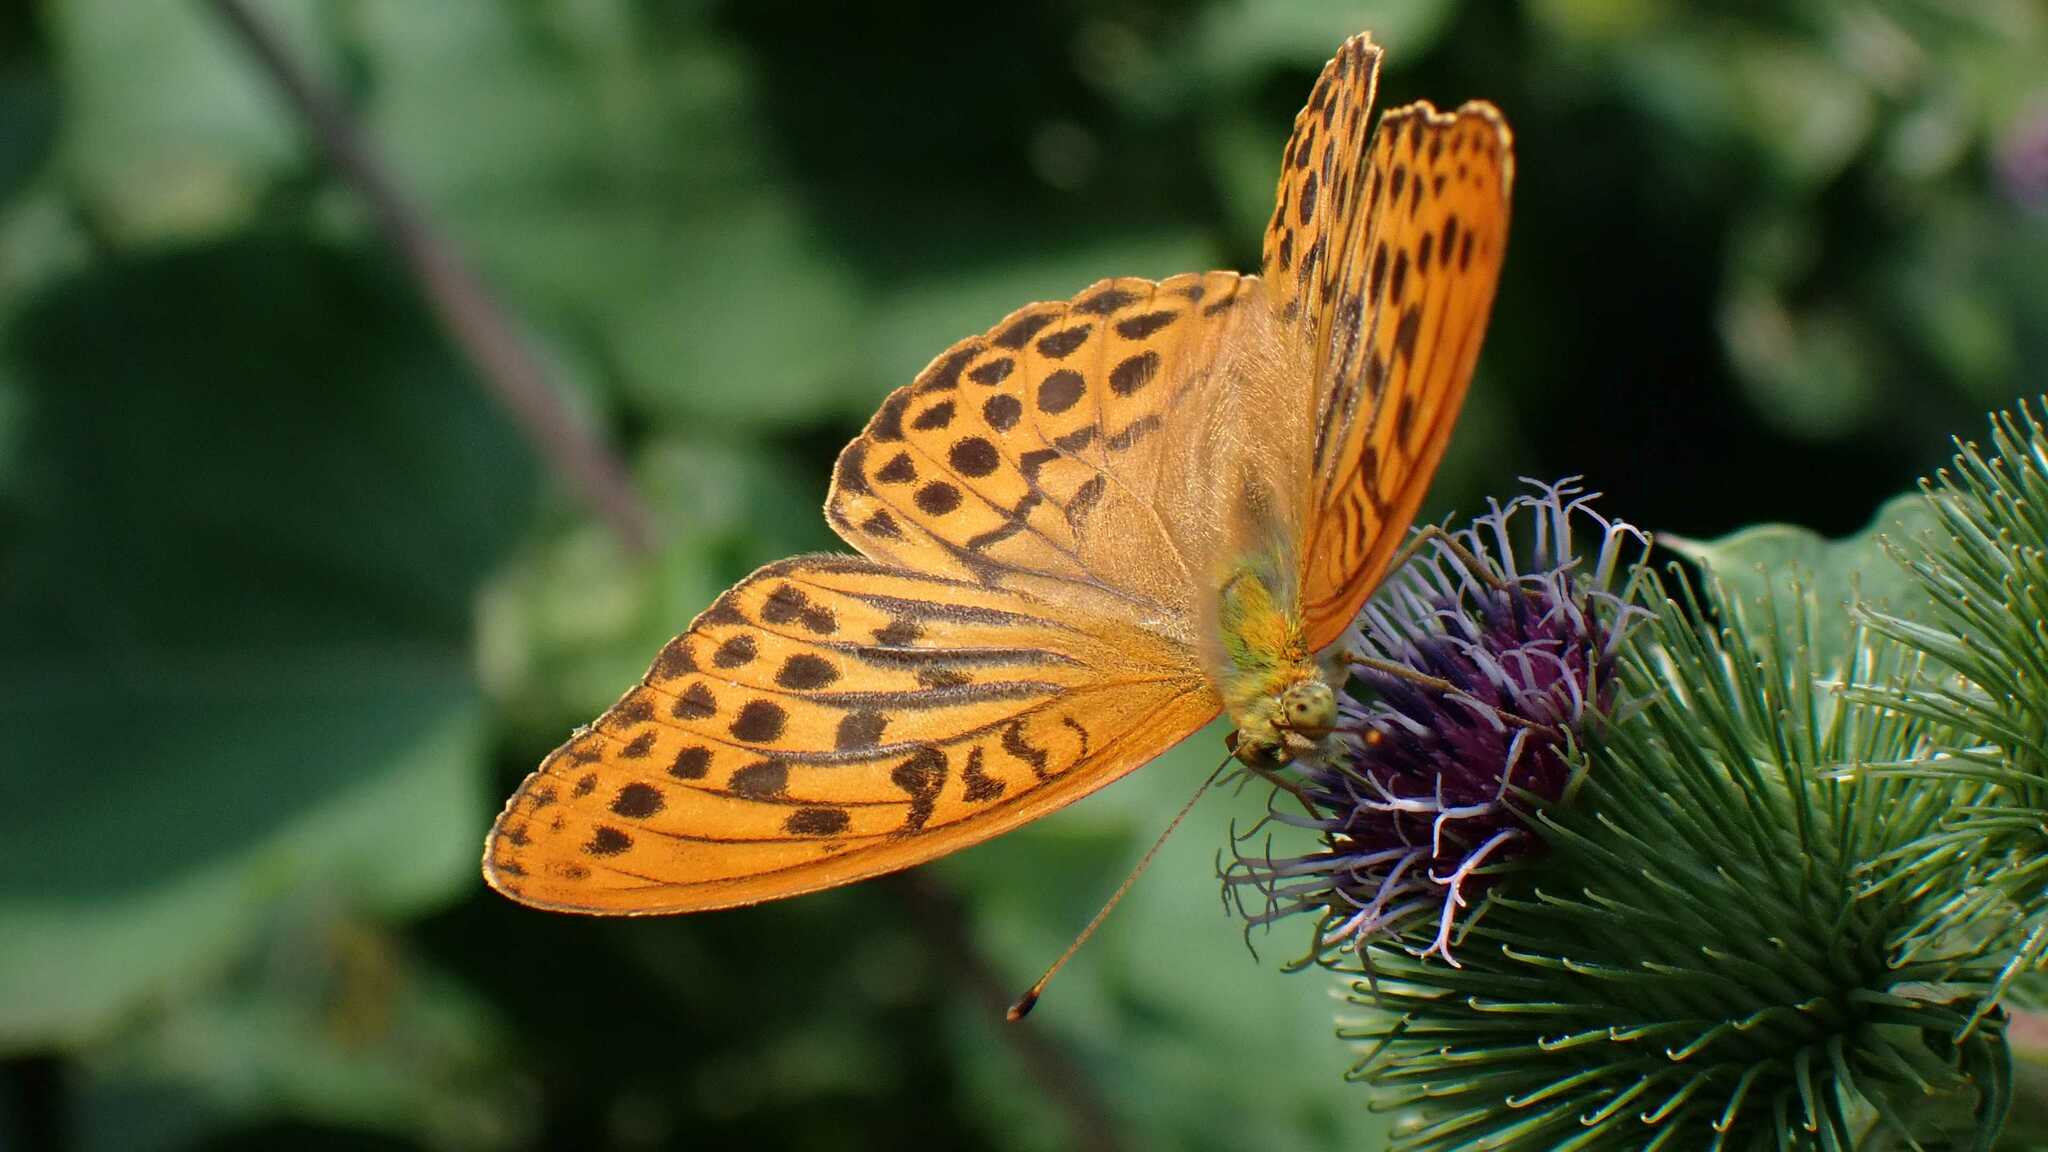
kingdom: Animalia
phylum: Arthropoda
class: Insecta
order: Lepidoptera
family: Nymphalidae
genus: Argynnis
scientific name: Argynnis paphia
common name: Silver-washed fritillary
